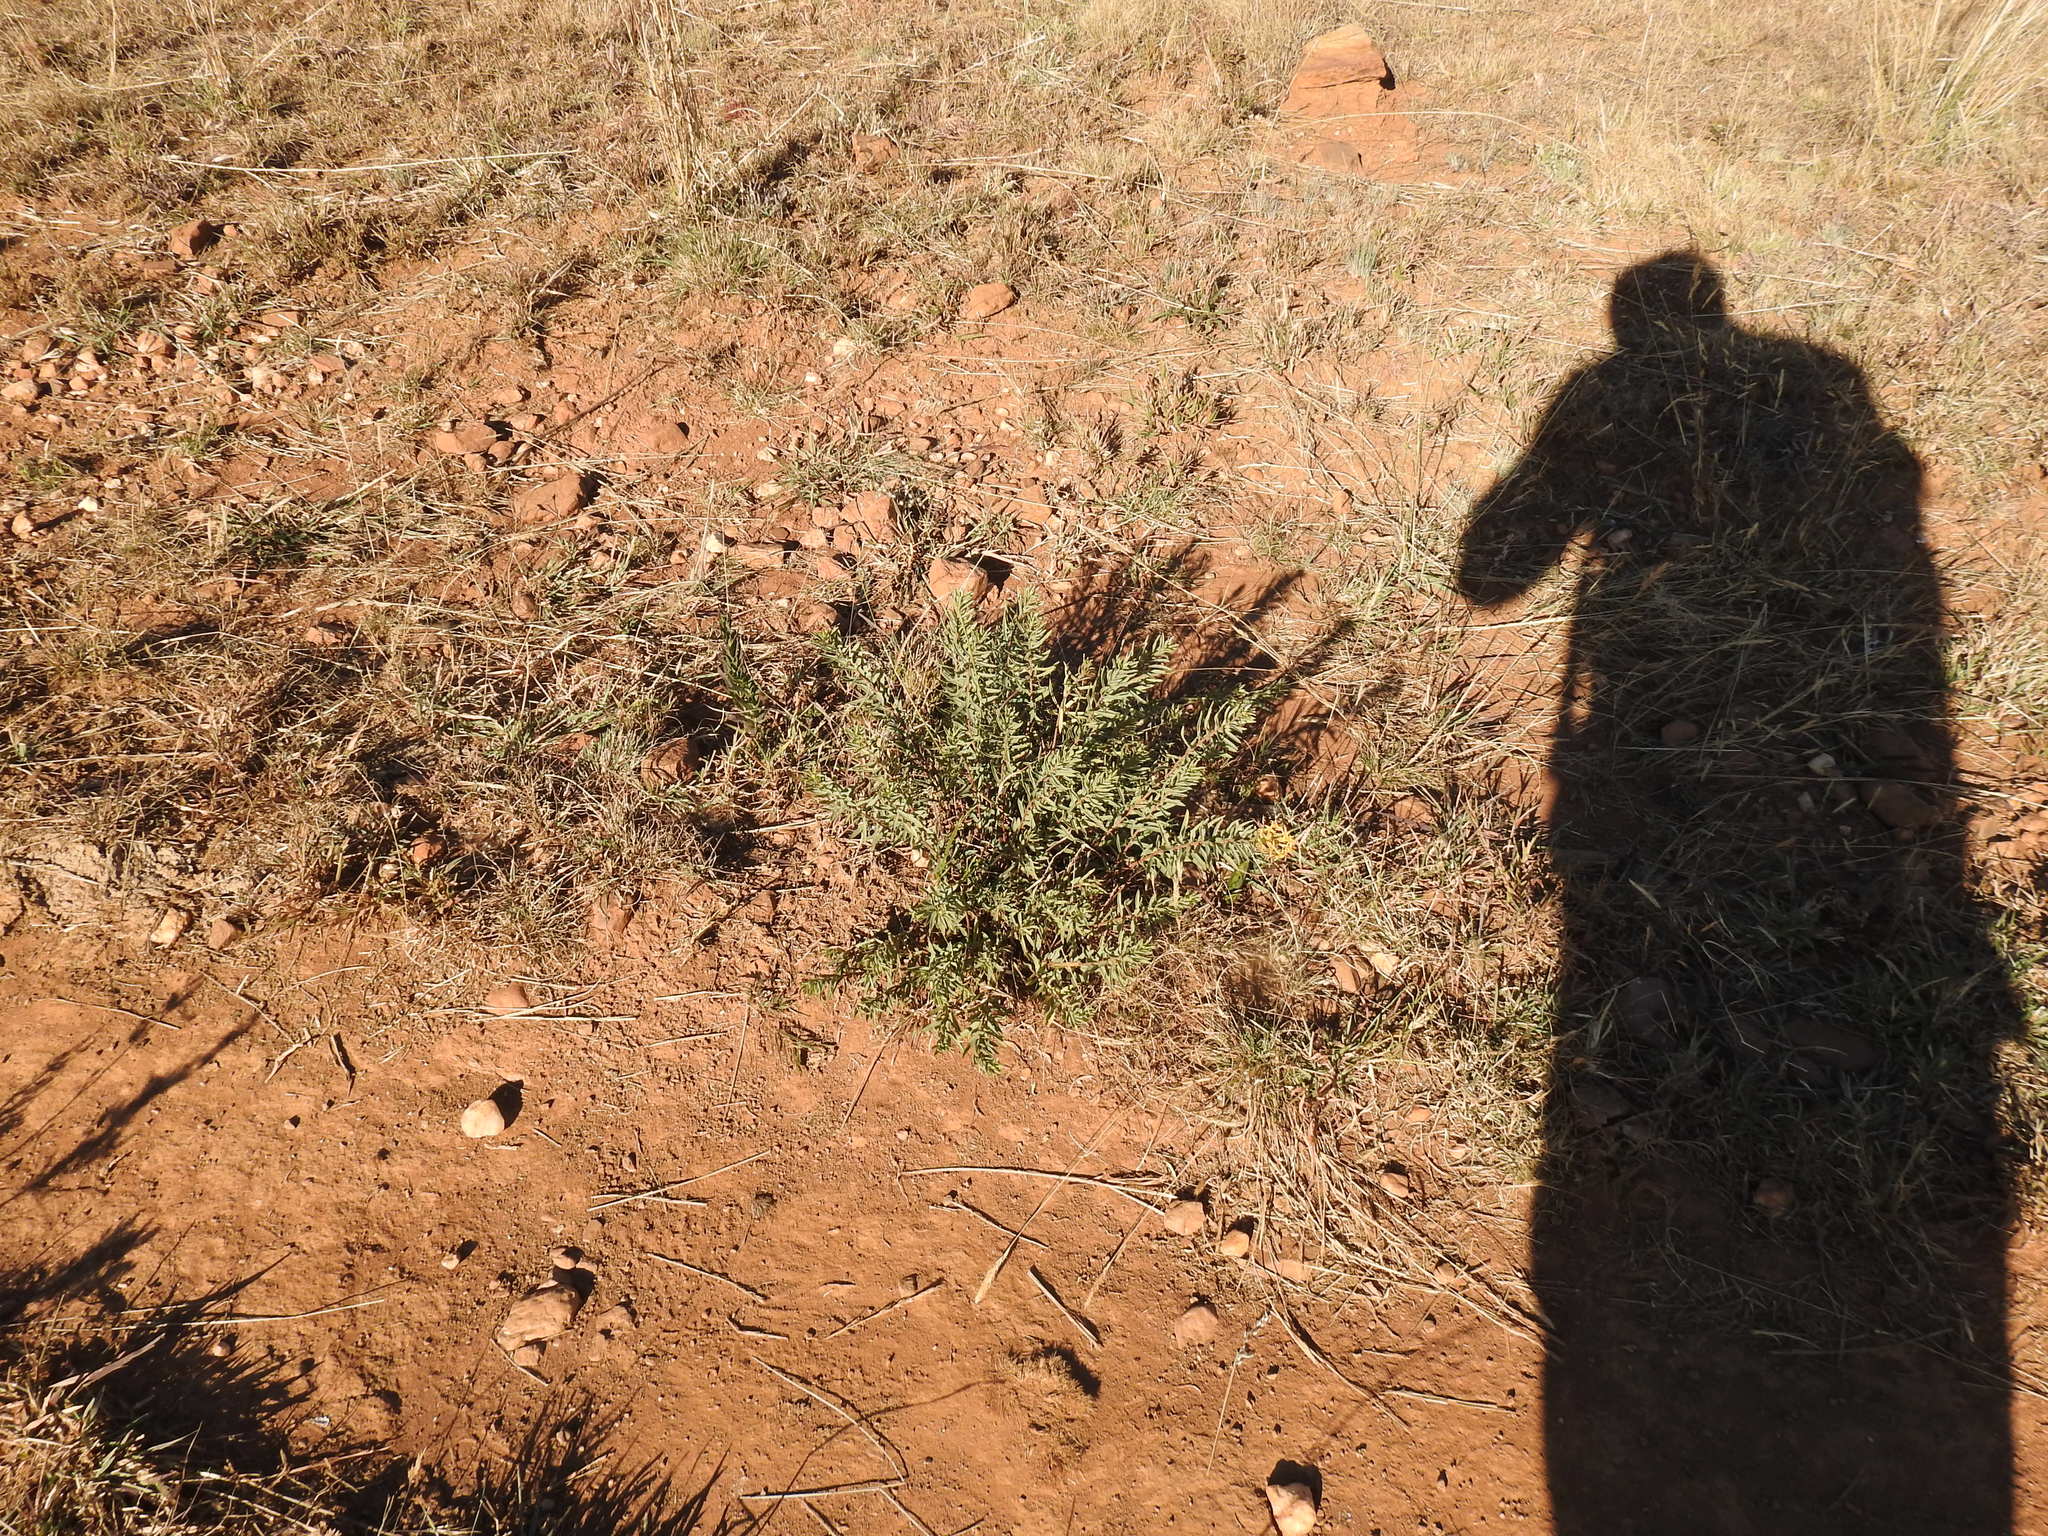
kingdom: Plantae
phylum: Tracheophyta
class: Magnoliopsida
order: Malvales
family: Thymelaeaceae
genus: Gnidia
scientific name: Gnidia capitata
